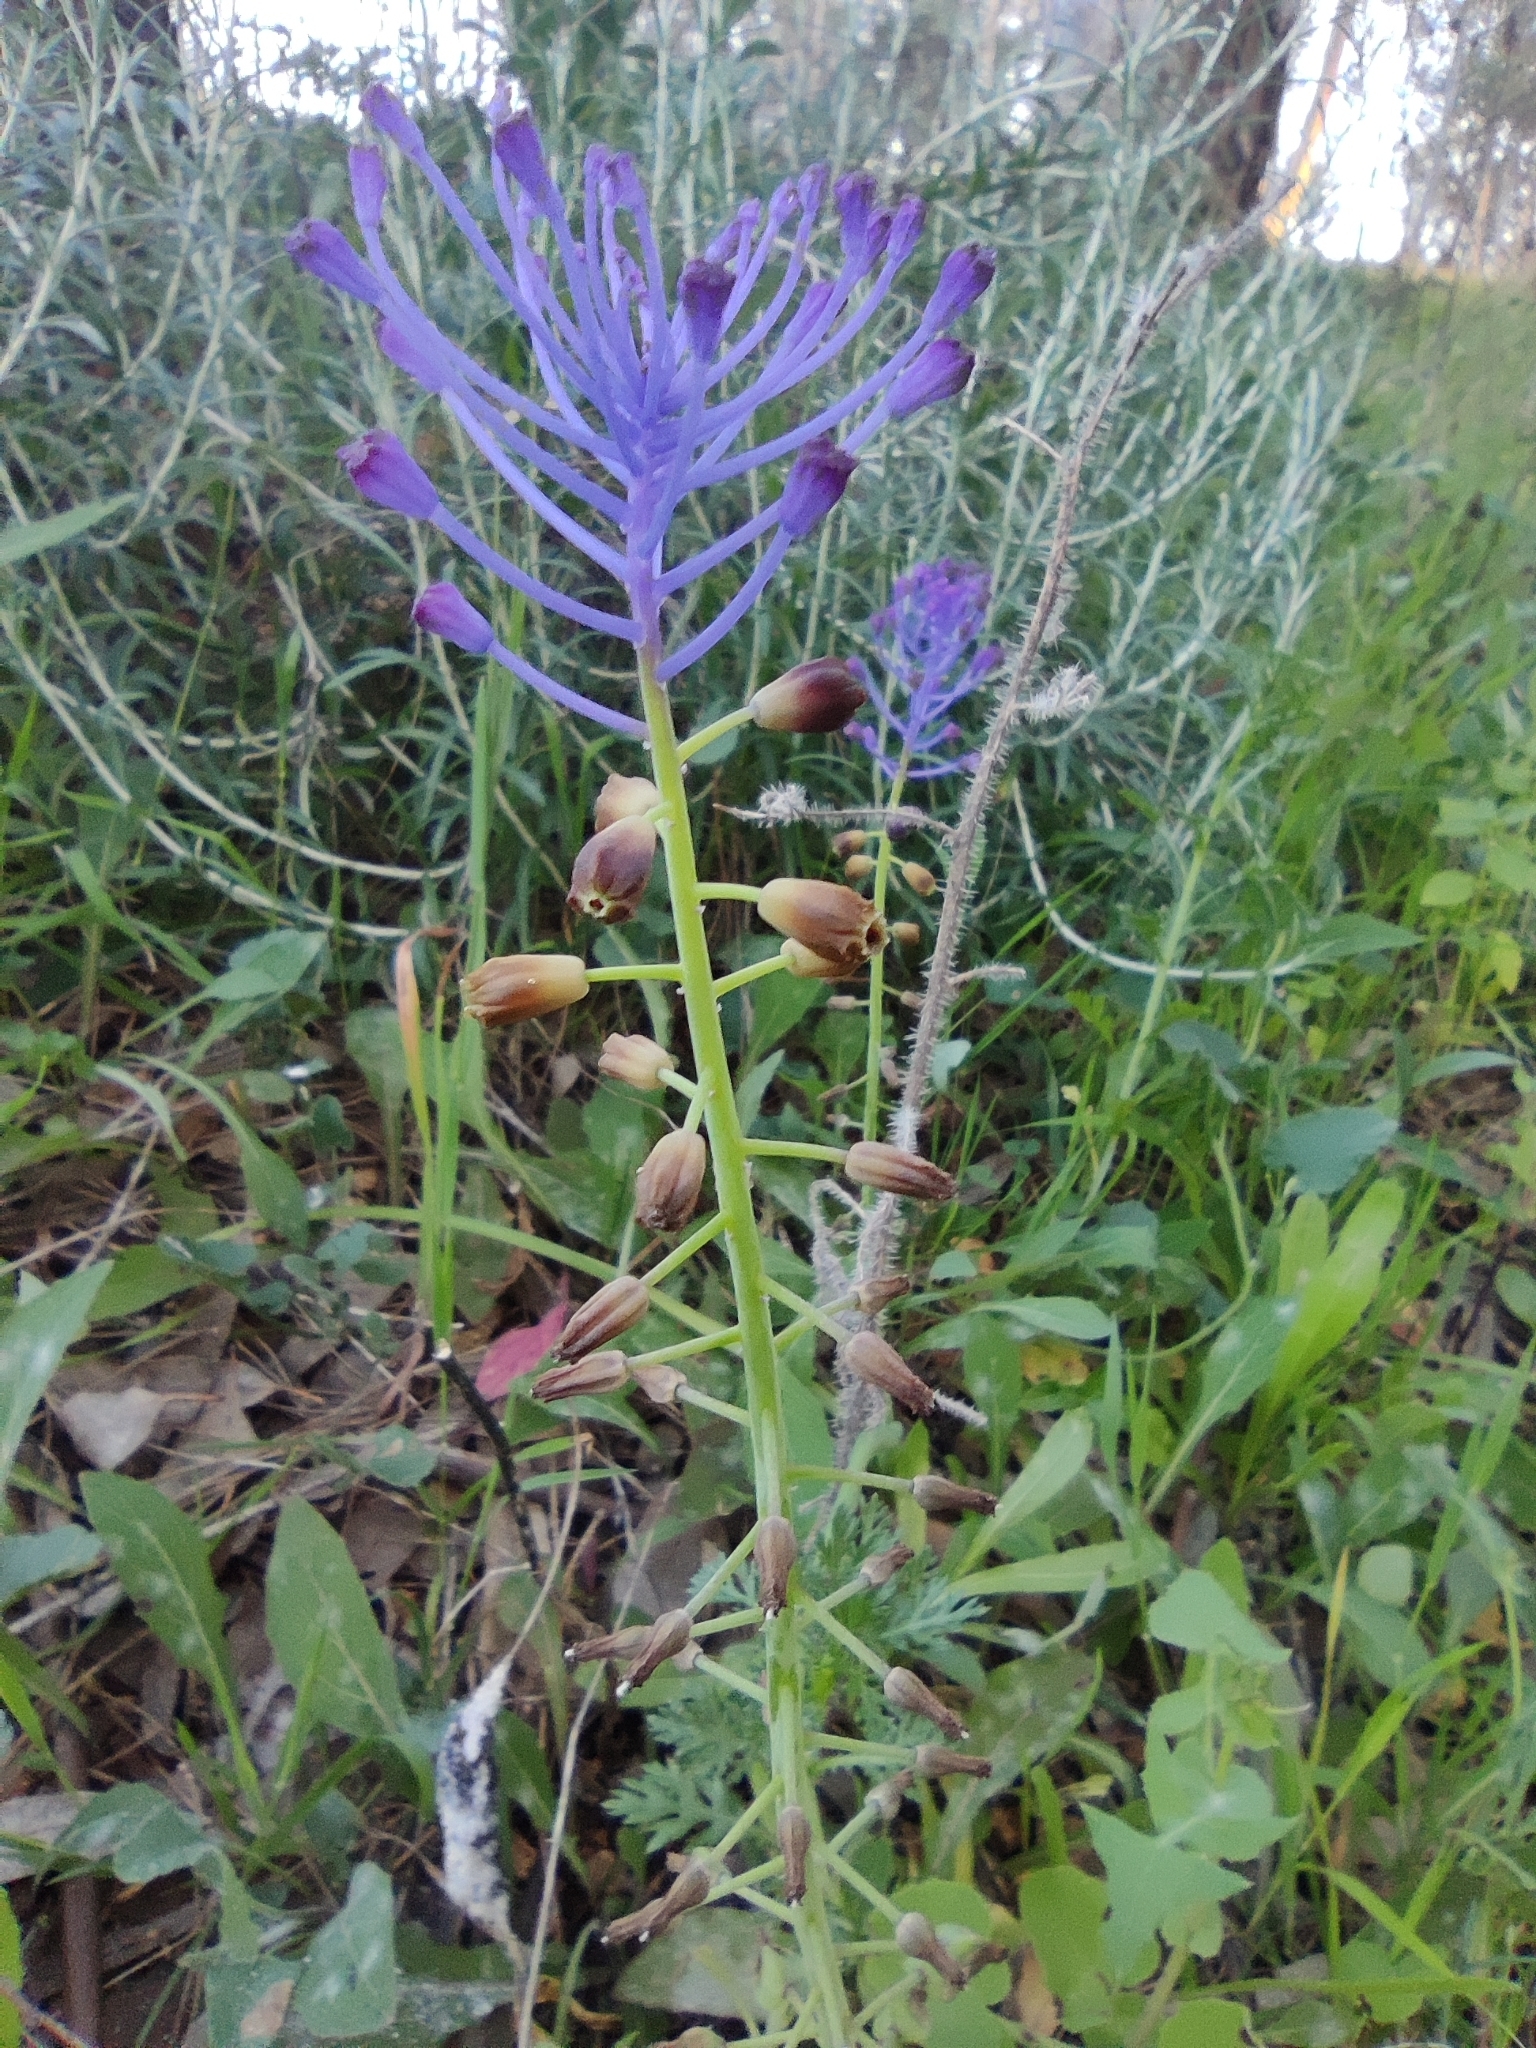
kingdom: Plantae
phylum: Tracheophyta
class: Liliopsida
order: Asparagales
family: Asparagaceae
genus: Muscari
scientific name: Muscari comosum
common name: Tassel hyacinth
